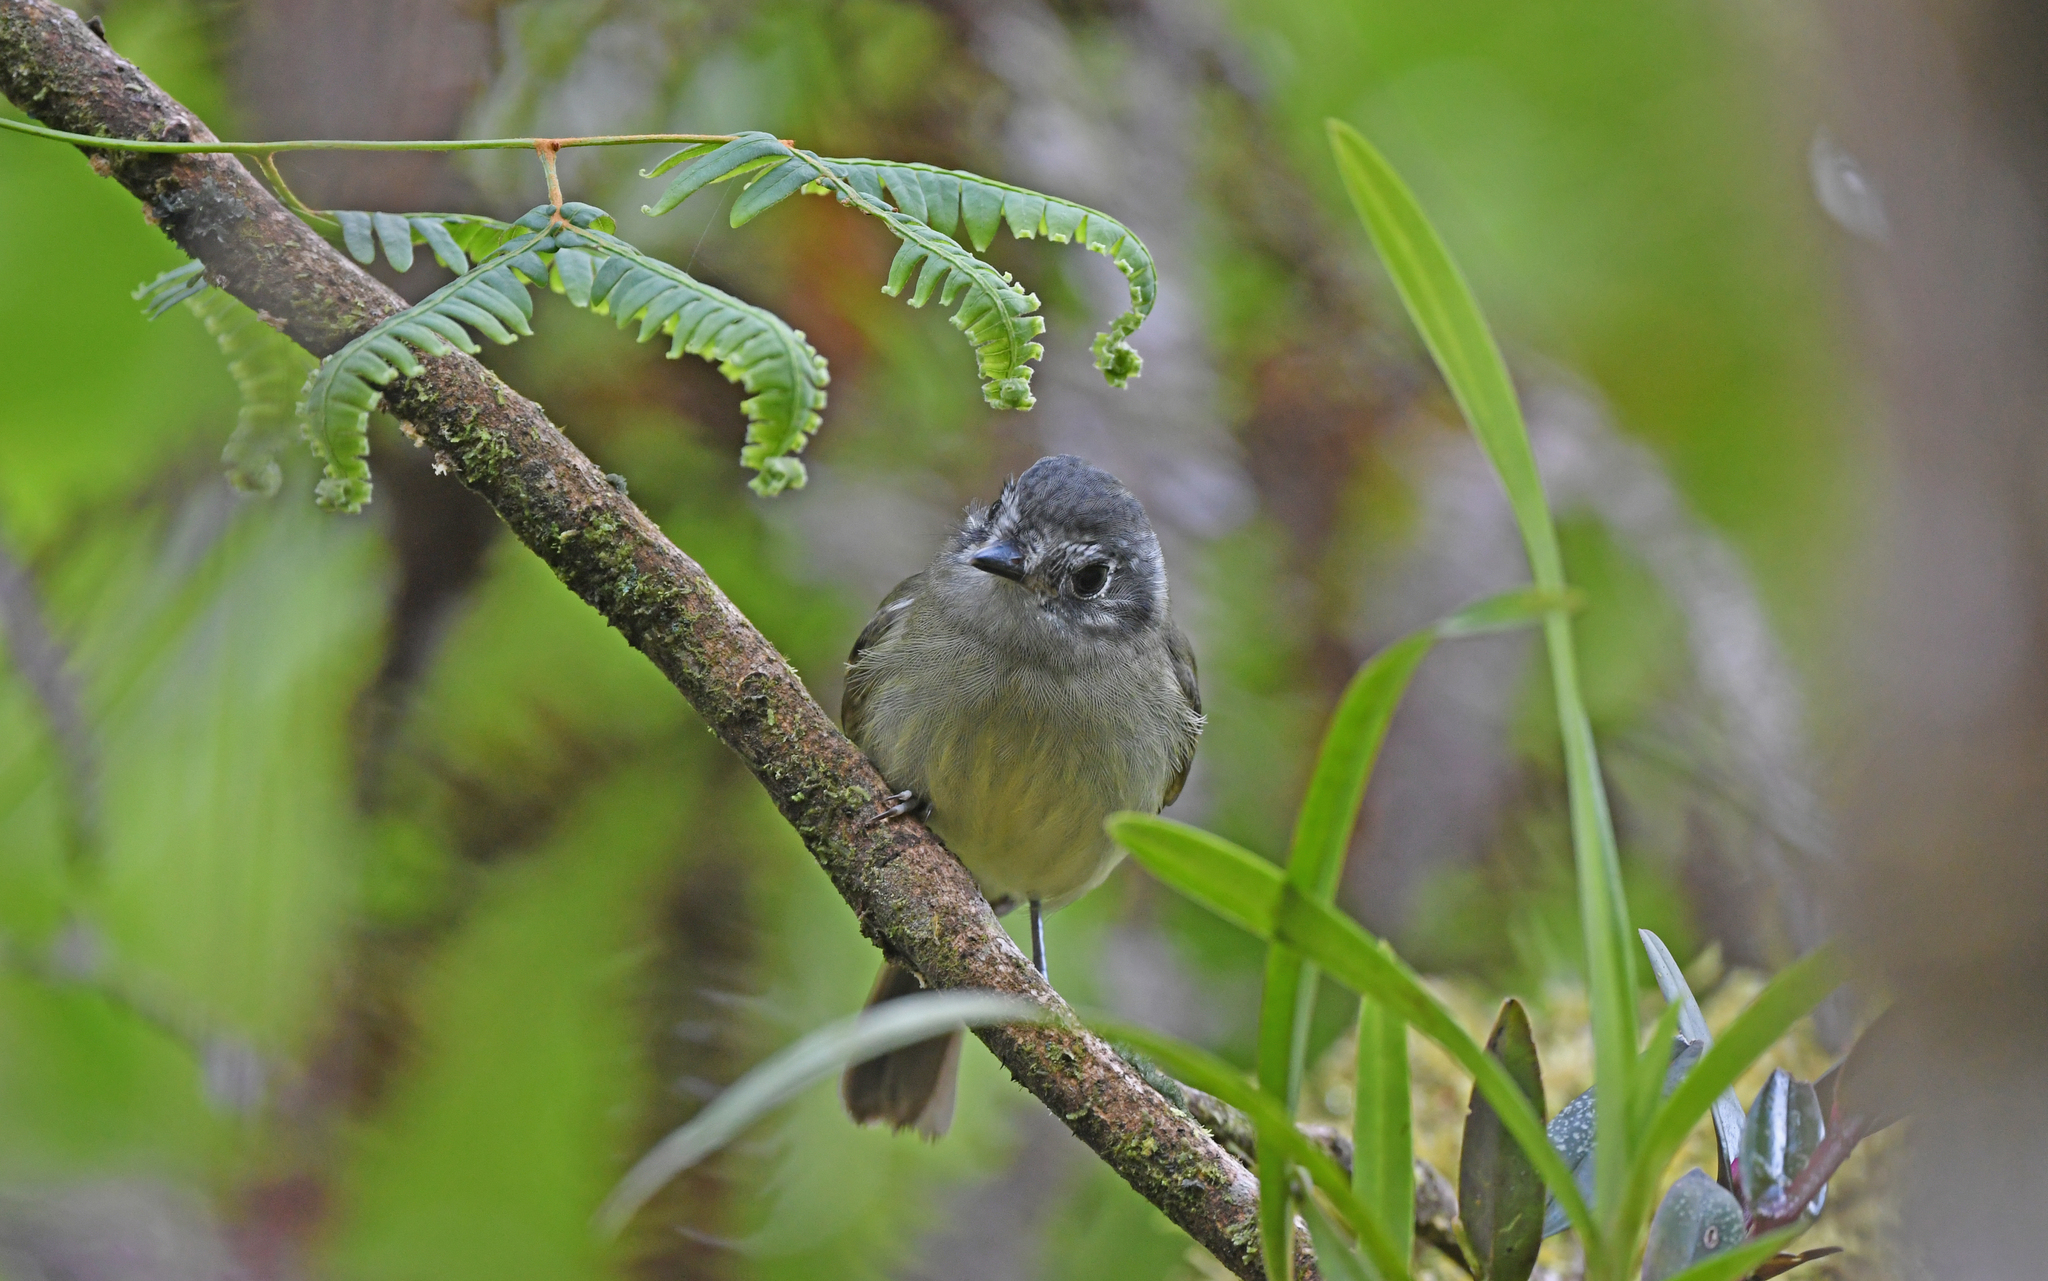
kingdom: Animalia
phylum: Chordata
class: Aves
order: Passeriformes
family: Tyrannidae
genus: Leptopogon
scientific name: Leptopogon superciliaris
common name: Slaty-capped flycatcher
